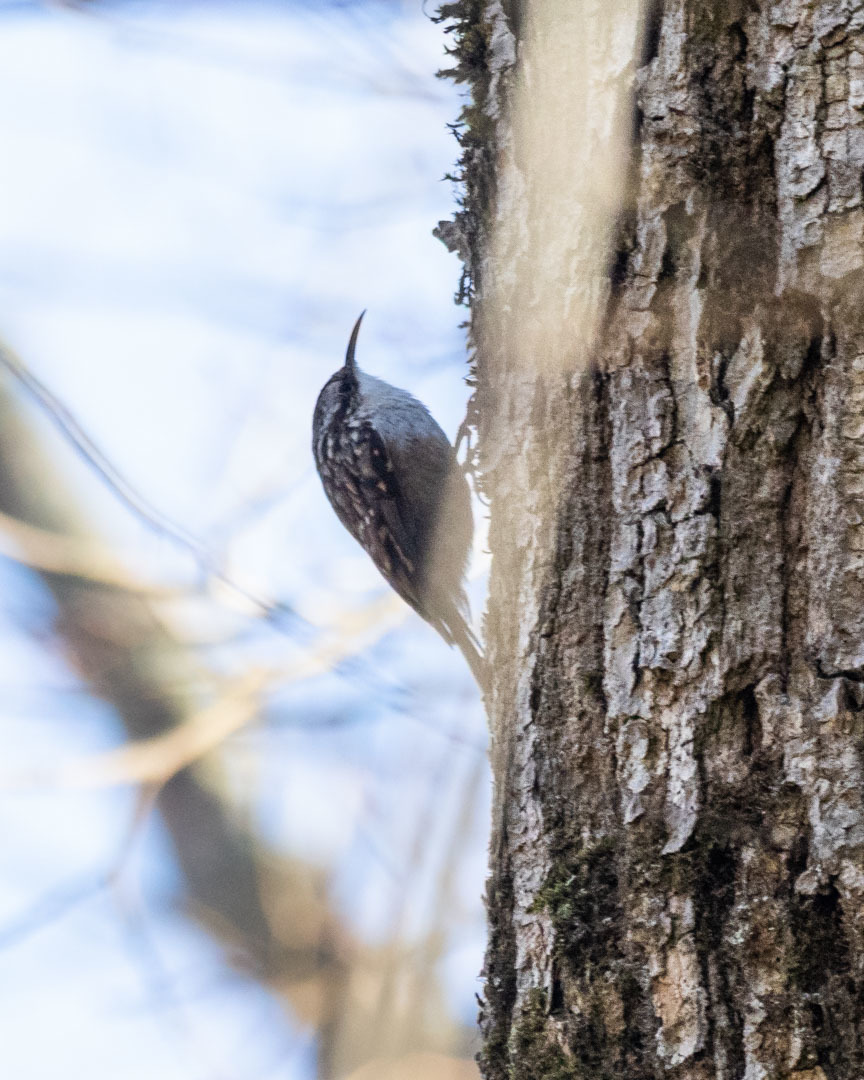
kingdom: Animalia
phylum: Chordata
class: Aves
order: Passeriformes
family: Certhiidae
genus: Certhia
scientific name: Certhia brachydactyla
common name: Short-toed treecreeper
